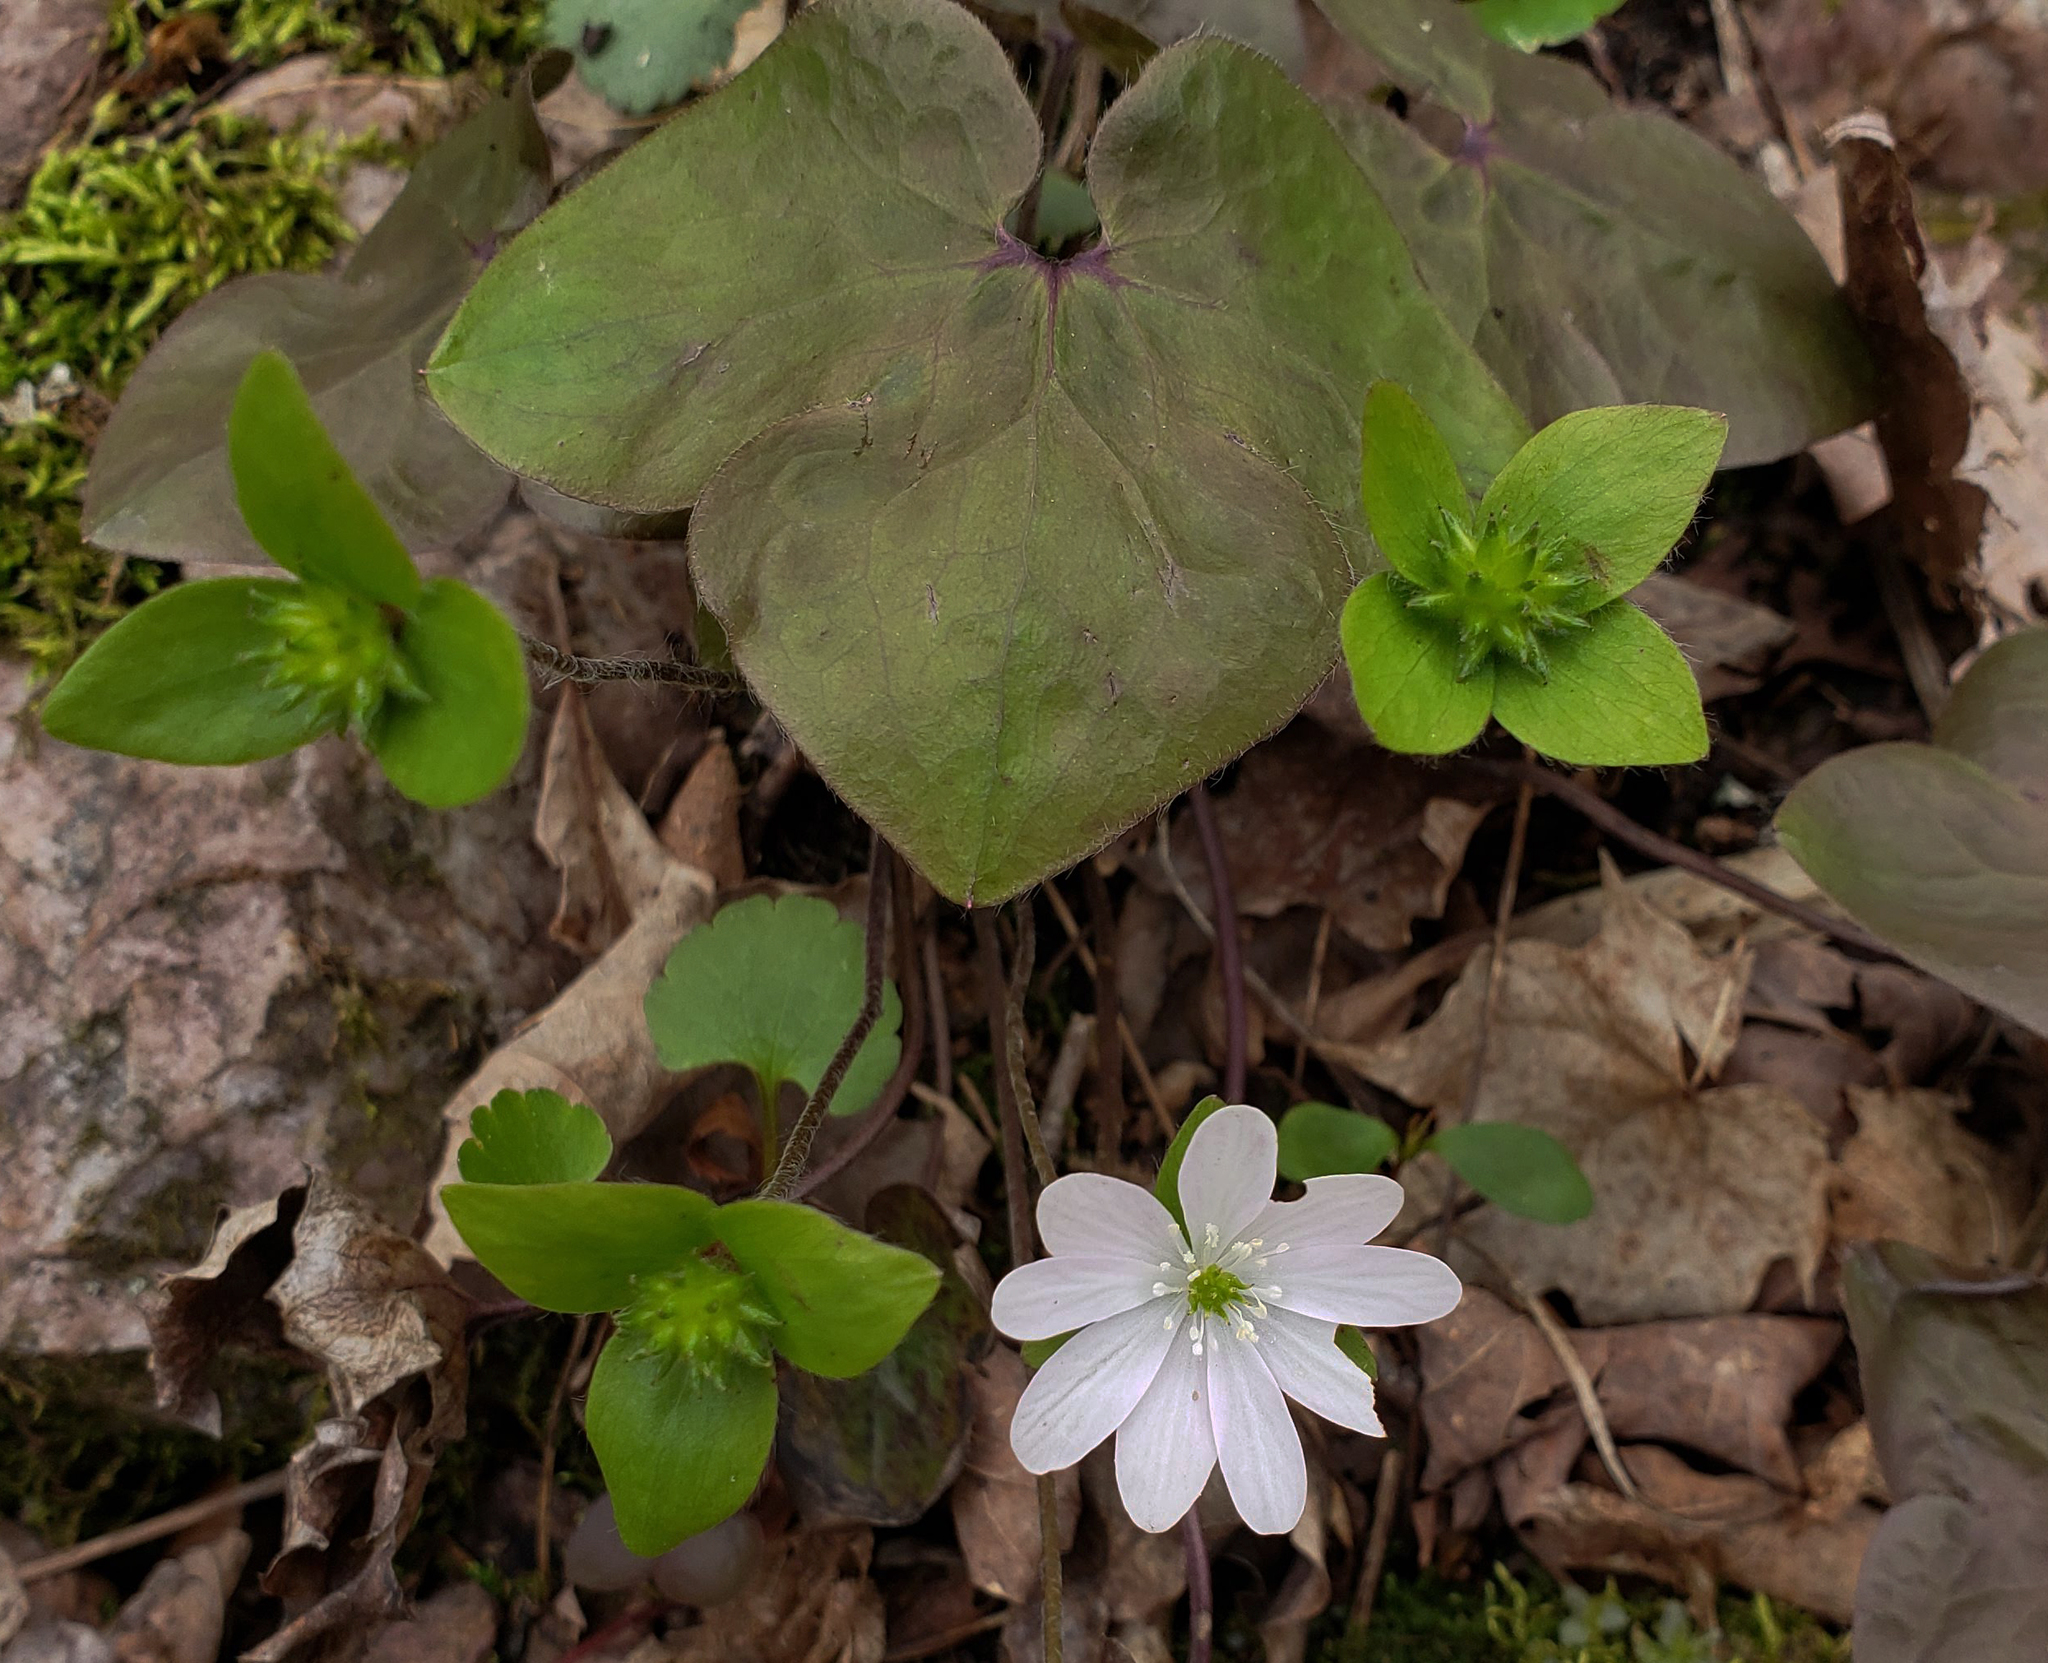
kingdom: Plantae
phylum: Tracheophyta
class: Magnoliopsida
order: Ranunculales
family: Ranunculaceae
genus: Hepatica
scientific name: Hepatica acutiloba
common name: Sharp-lobed hepatica
